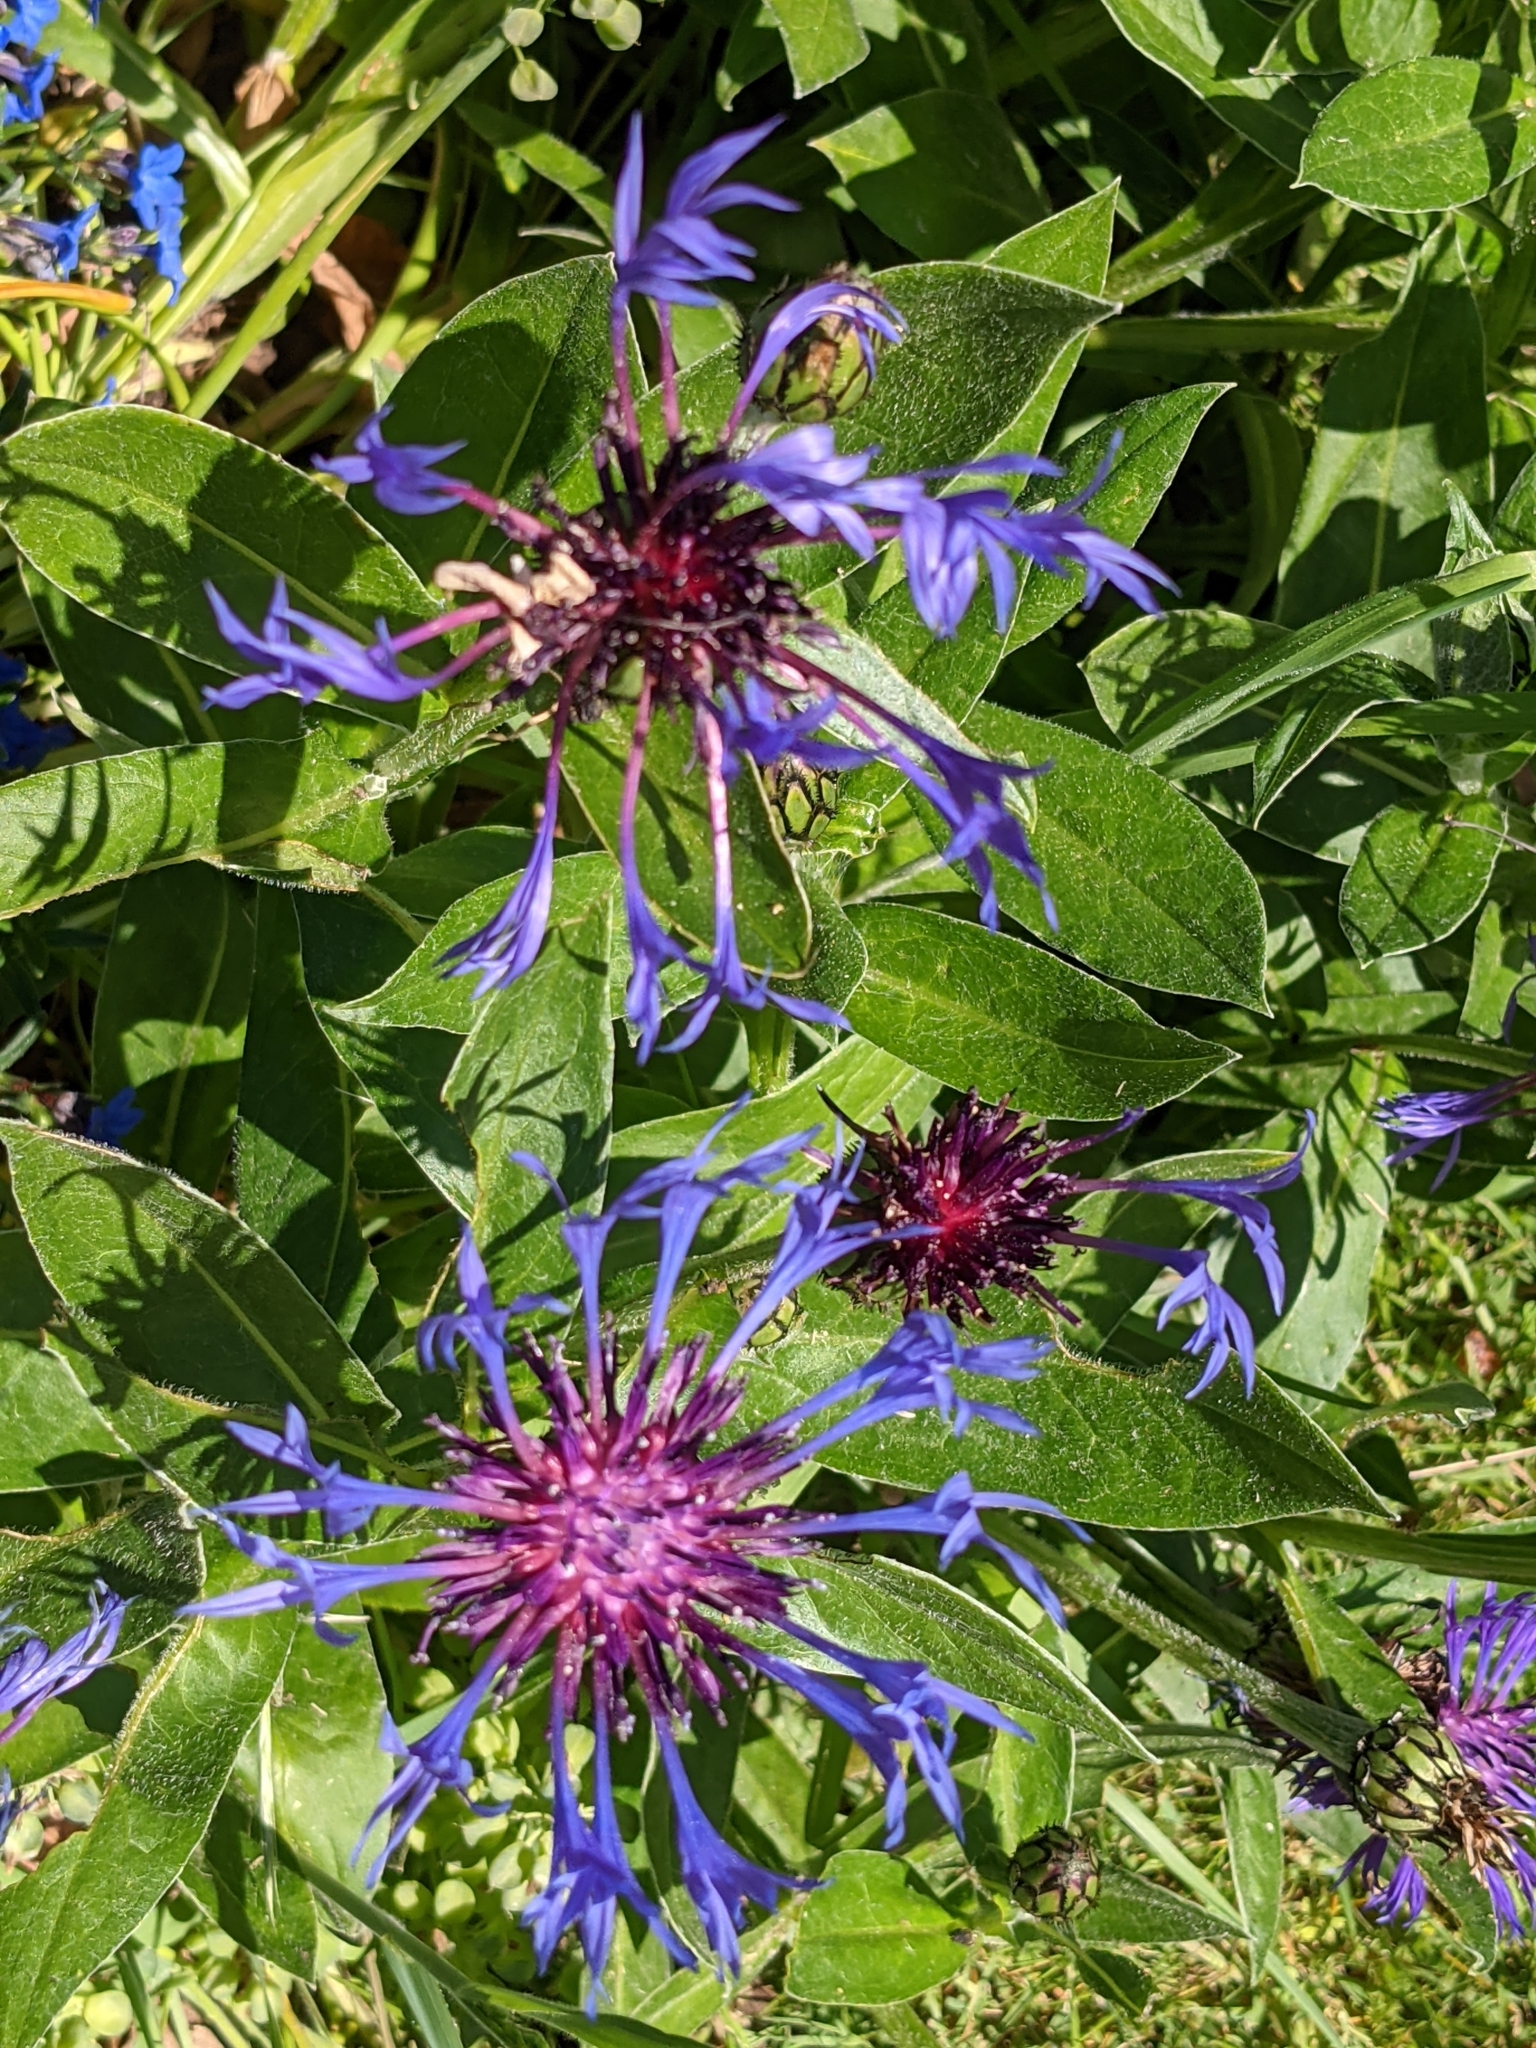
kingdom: Plantae
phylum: Tracheophyta
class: Magnoliopsida
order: Asterales
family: Asteraceae
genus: Centaurea
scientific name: Centaurea montana
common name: Perennial cornflower
